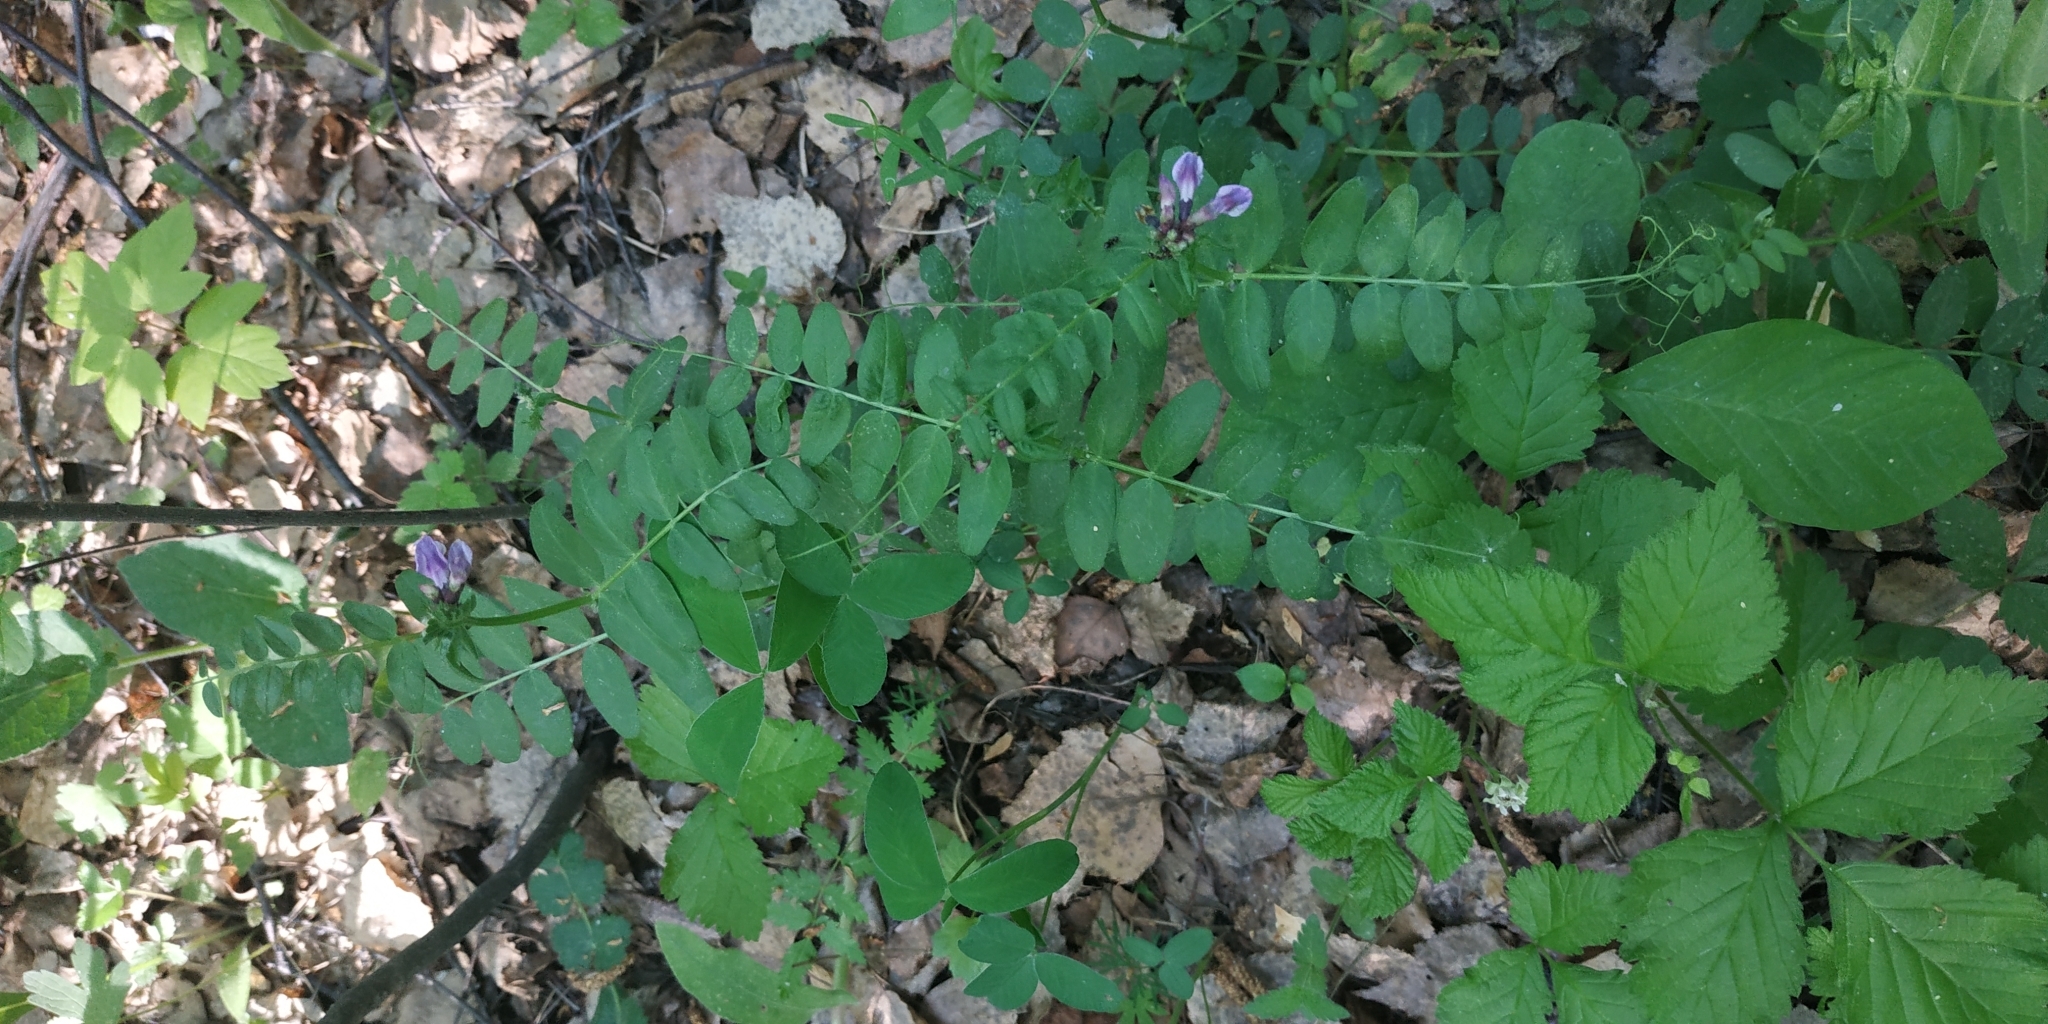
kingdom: Plantae
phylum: Tracheophyta
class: Magnoliopsida
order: Fabales
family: Fabaceae
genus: Vicia
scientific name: Vicia sepium
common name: Bush vetch
